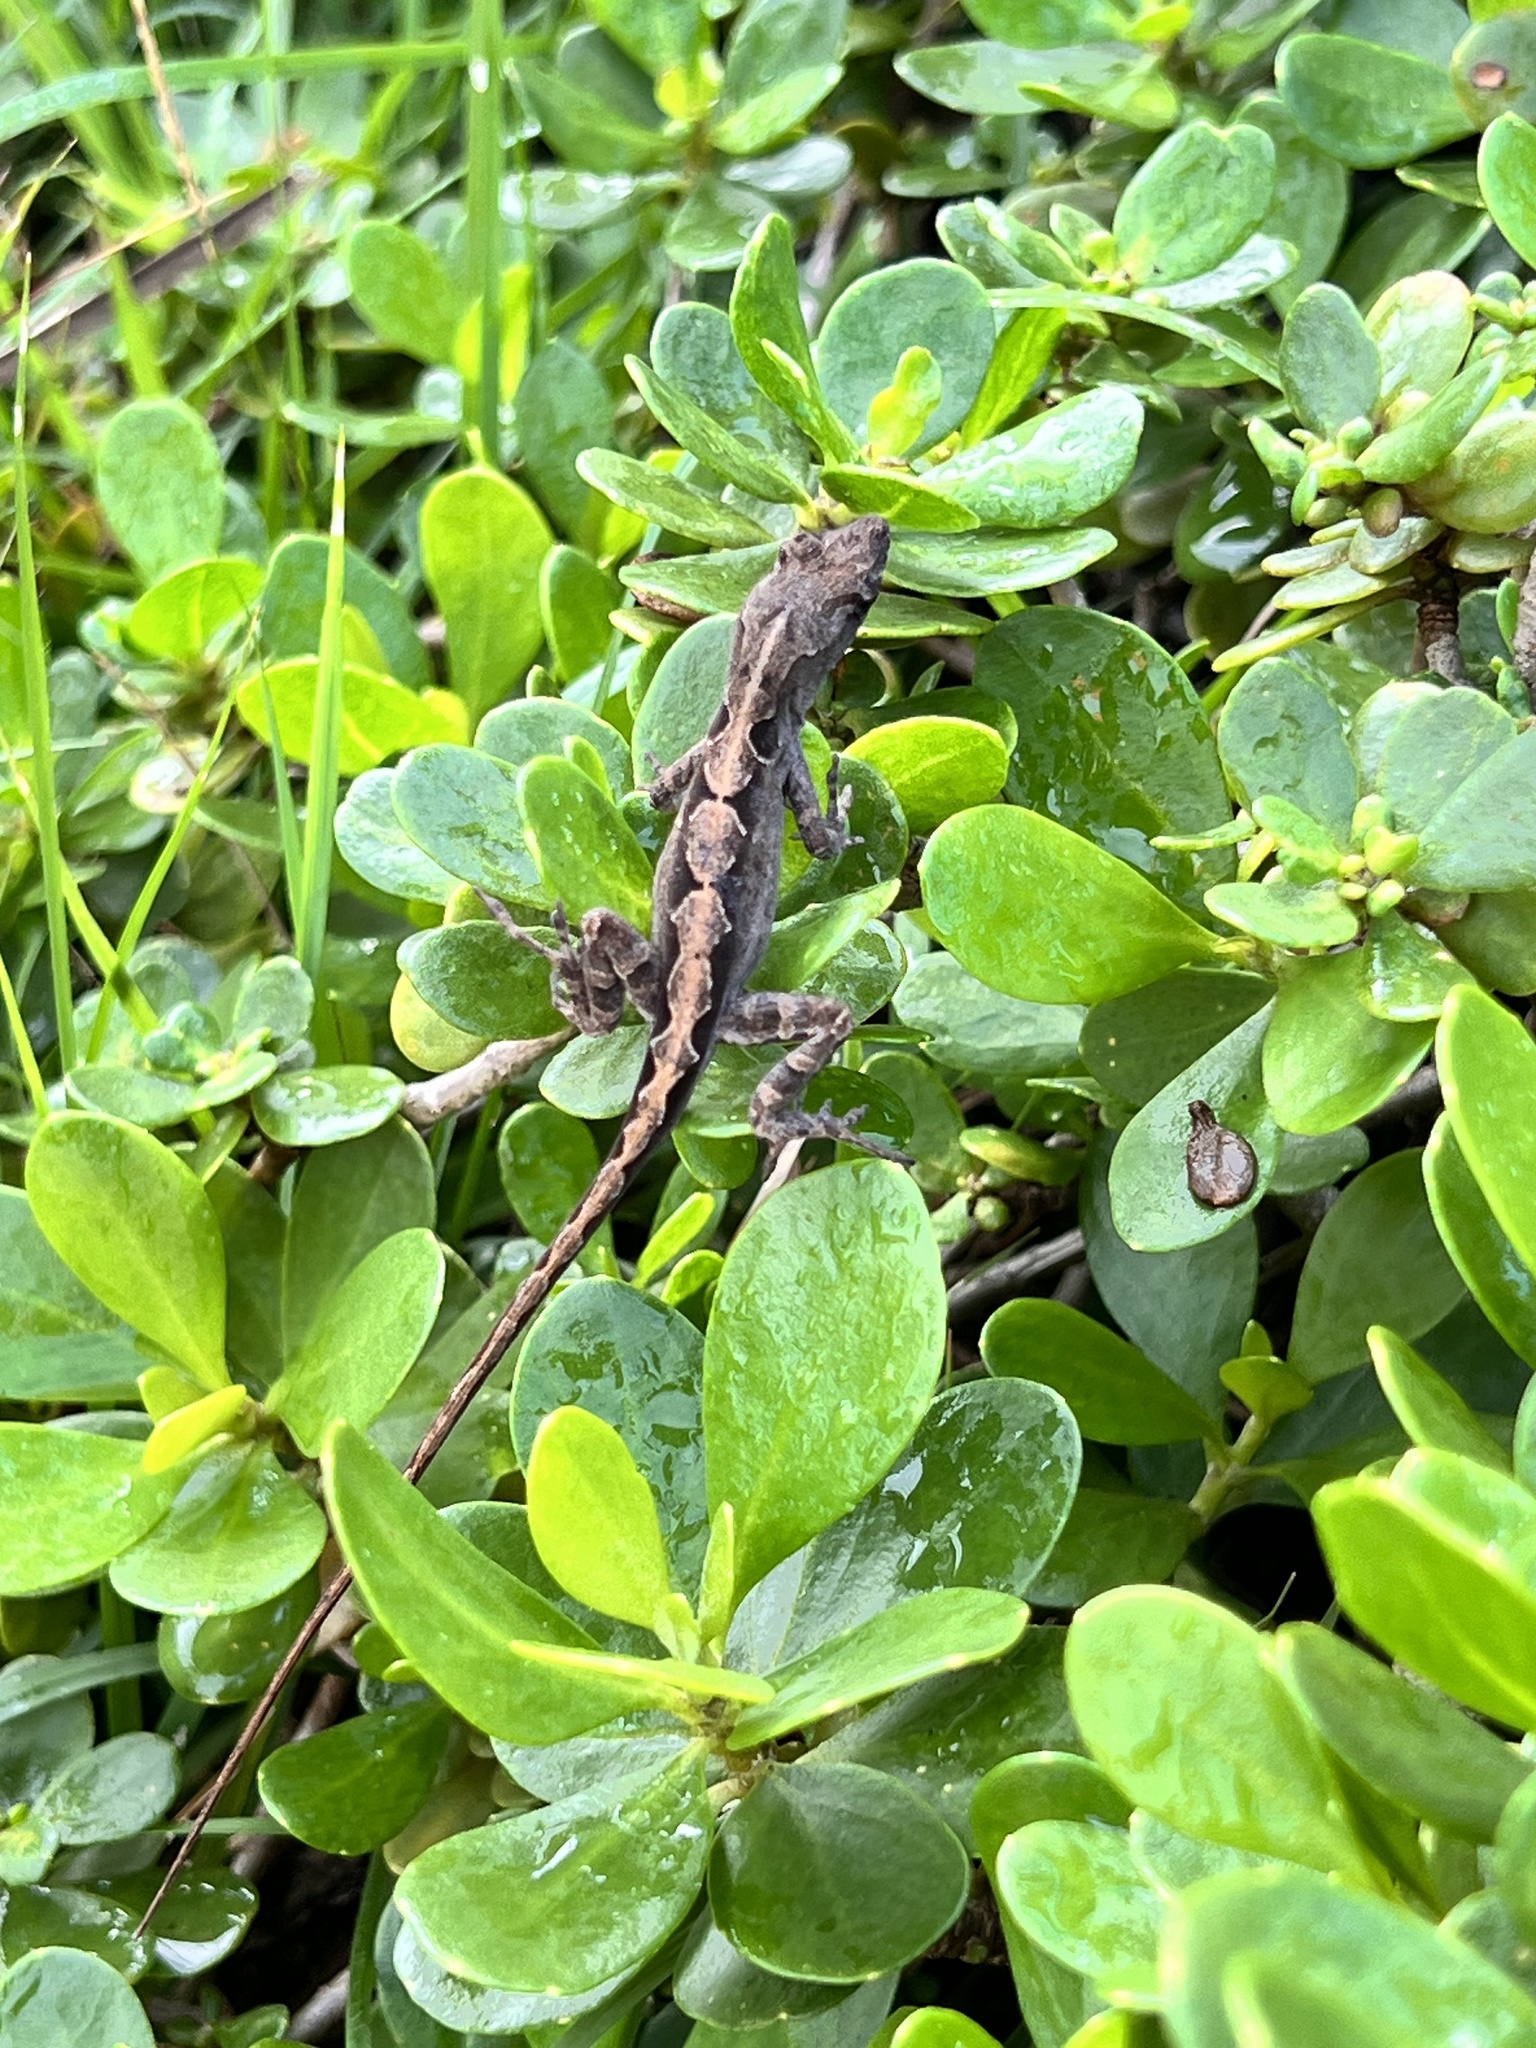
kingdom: Animalia
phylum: Chordata
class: Squamata
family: Dactyloidae
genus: Anolis
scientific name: Anolis sagrei
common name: Brown anole
